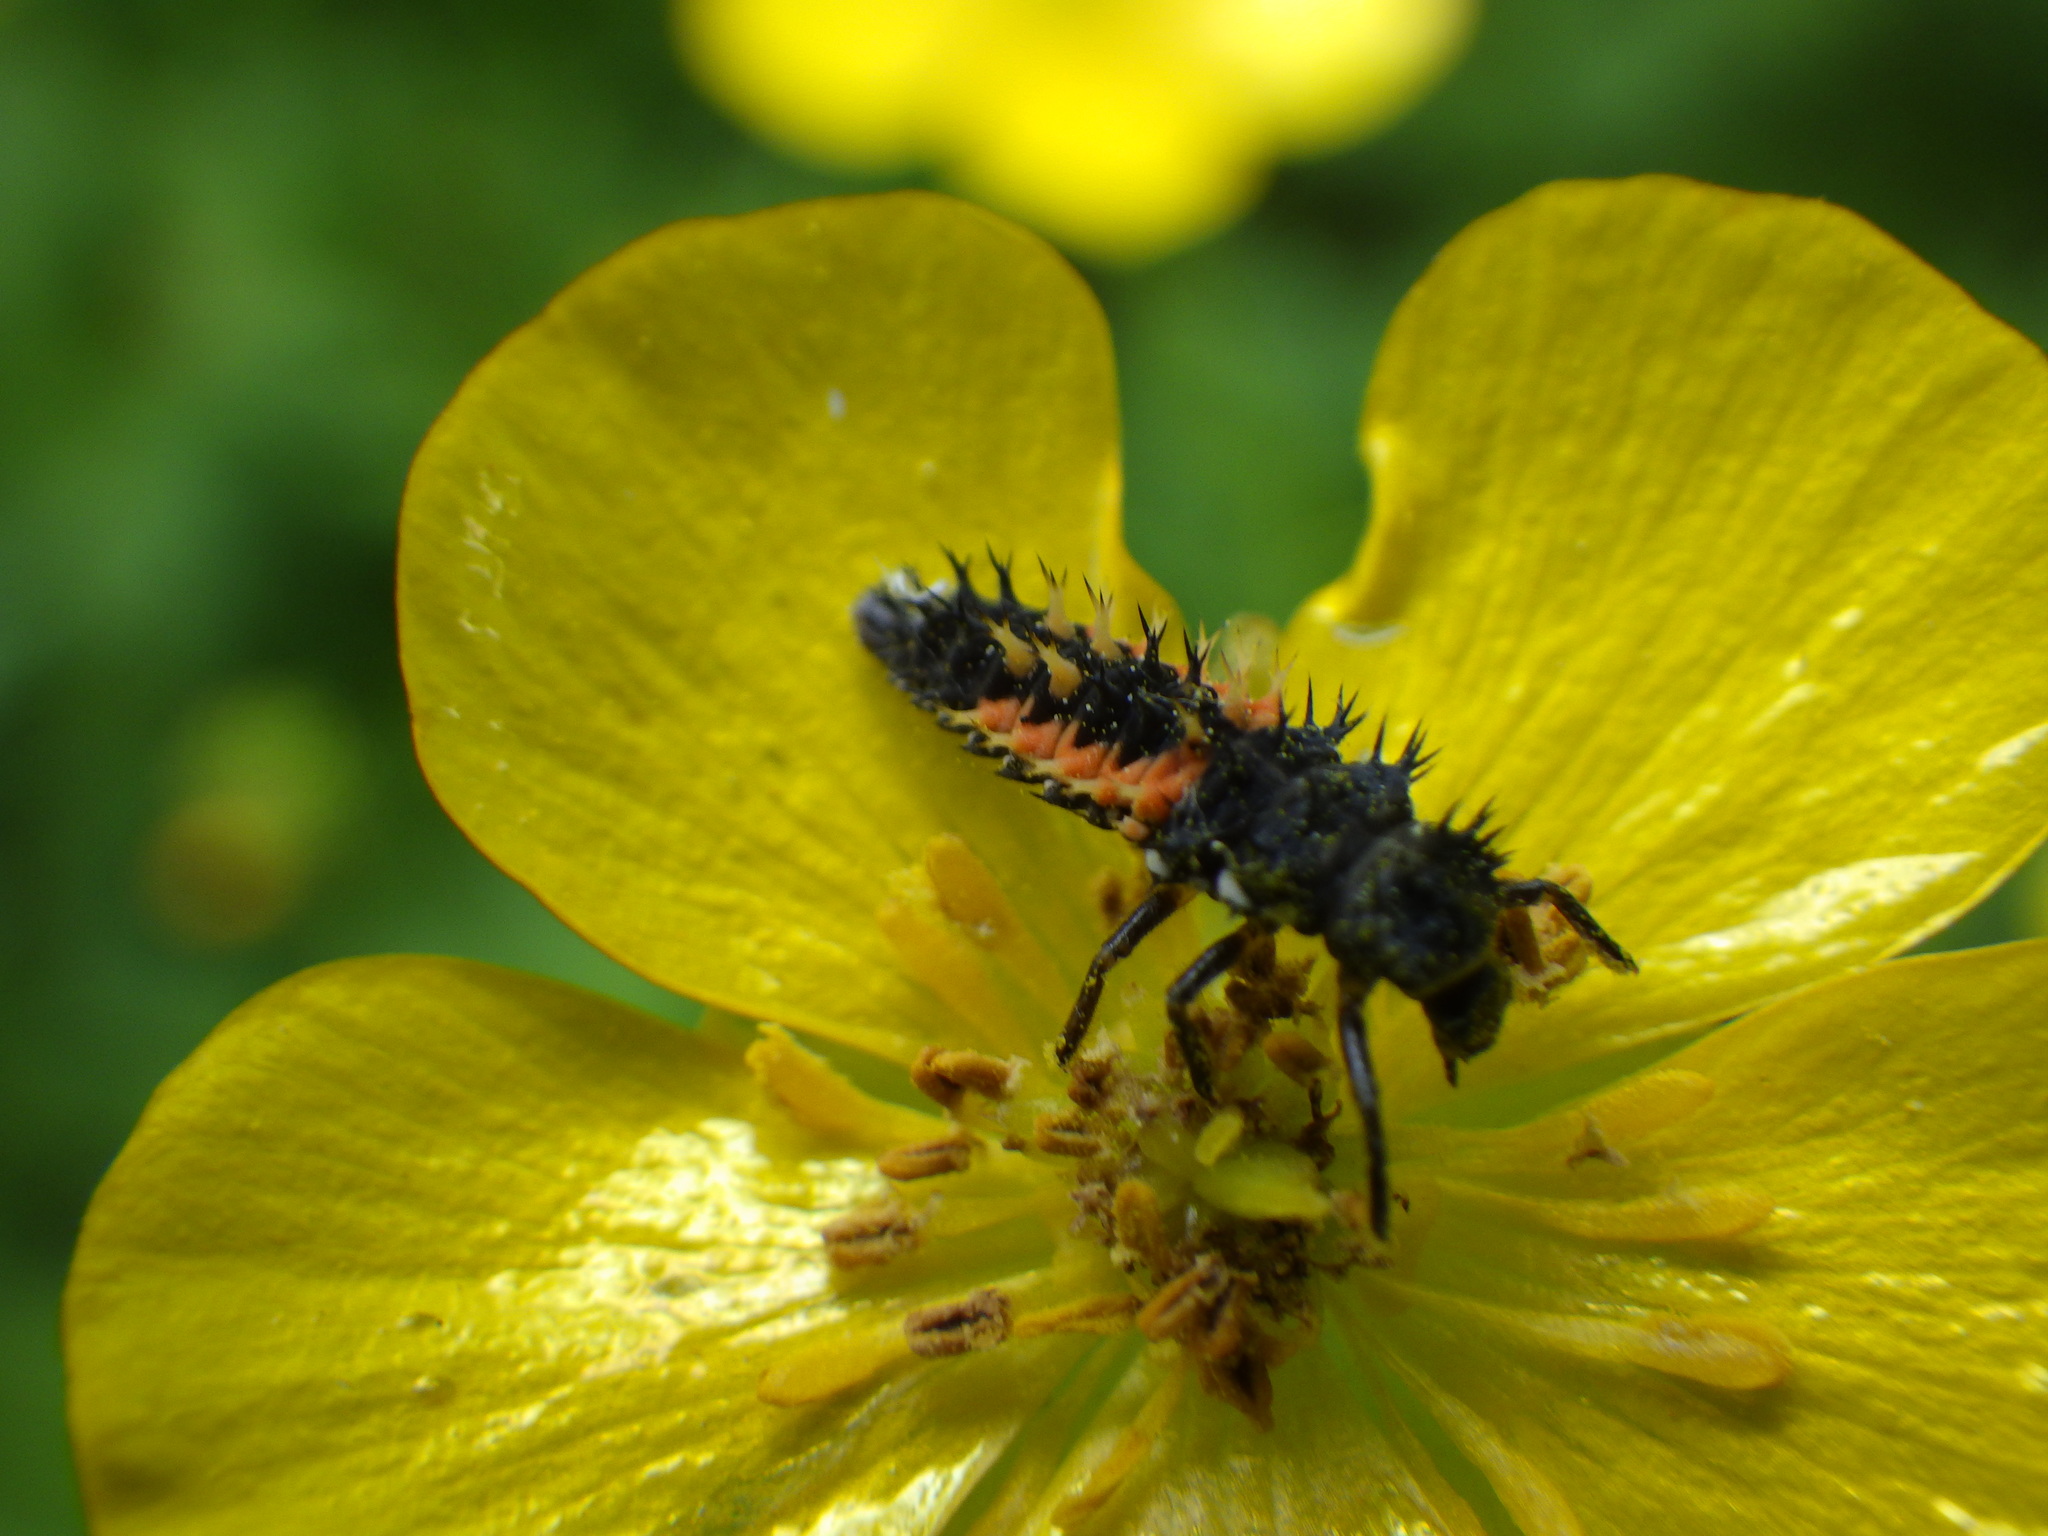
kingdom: Animalia
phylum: Arthropoda
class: Insecta
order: Coleoptera
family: Coccinellidae
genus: Harmonia
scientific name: Harmonia axyridis
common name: Harlequin ladybird
